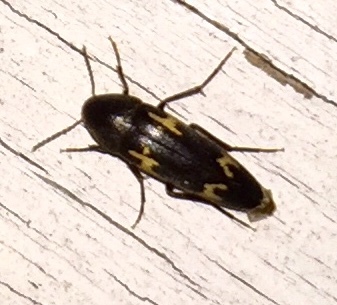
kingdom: Animalia
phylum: Arthropoda
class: Insecta
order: Coleoptera
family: Melandryidae
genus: Dircaea
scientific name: Dircaea liturata
